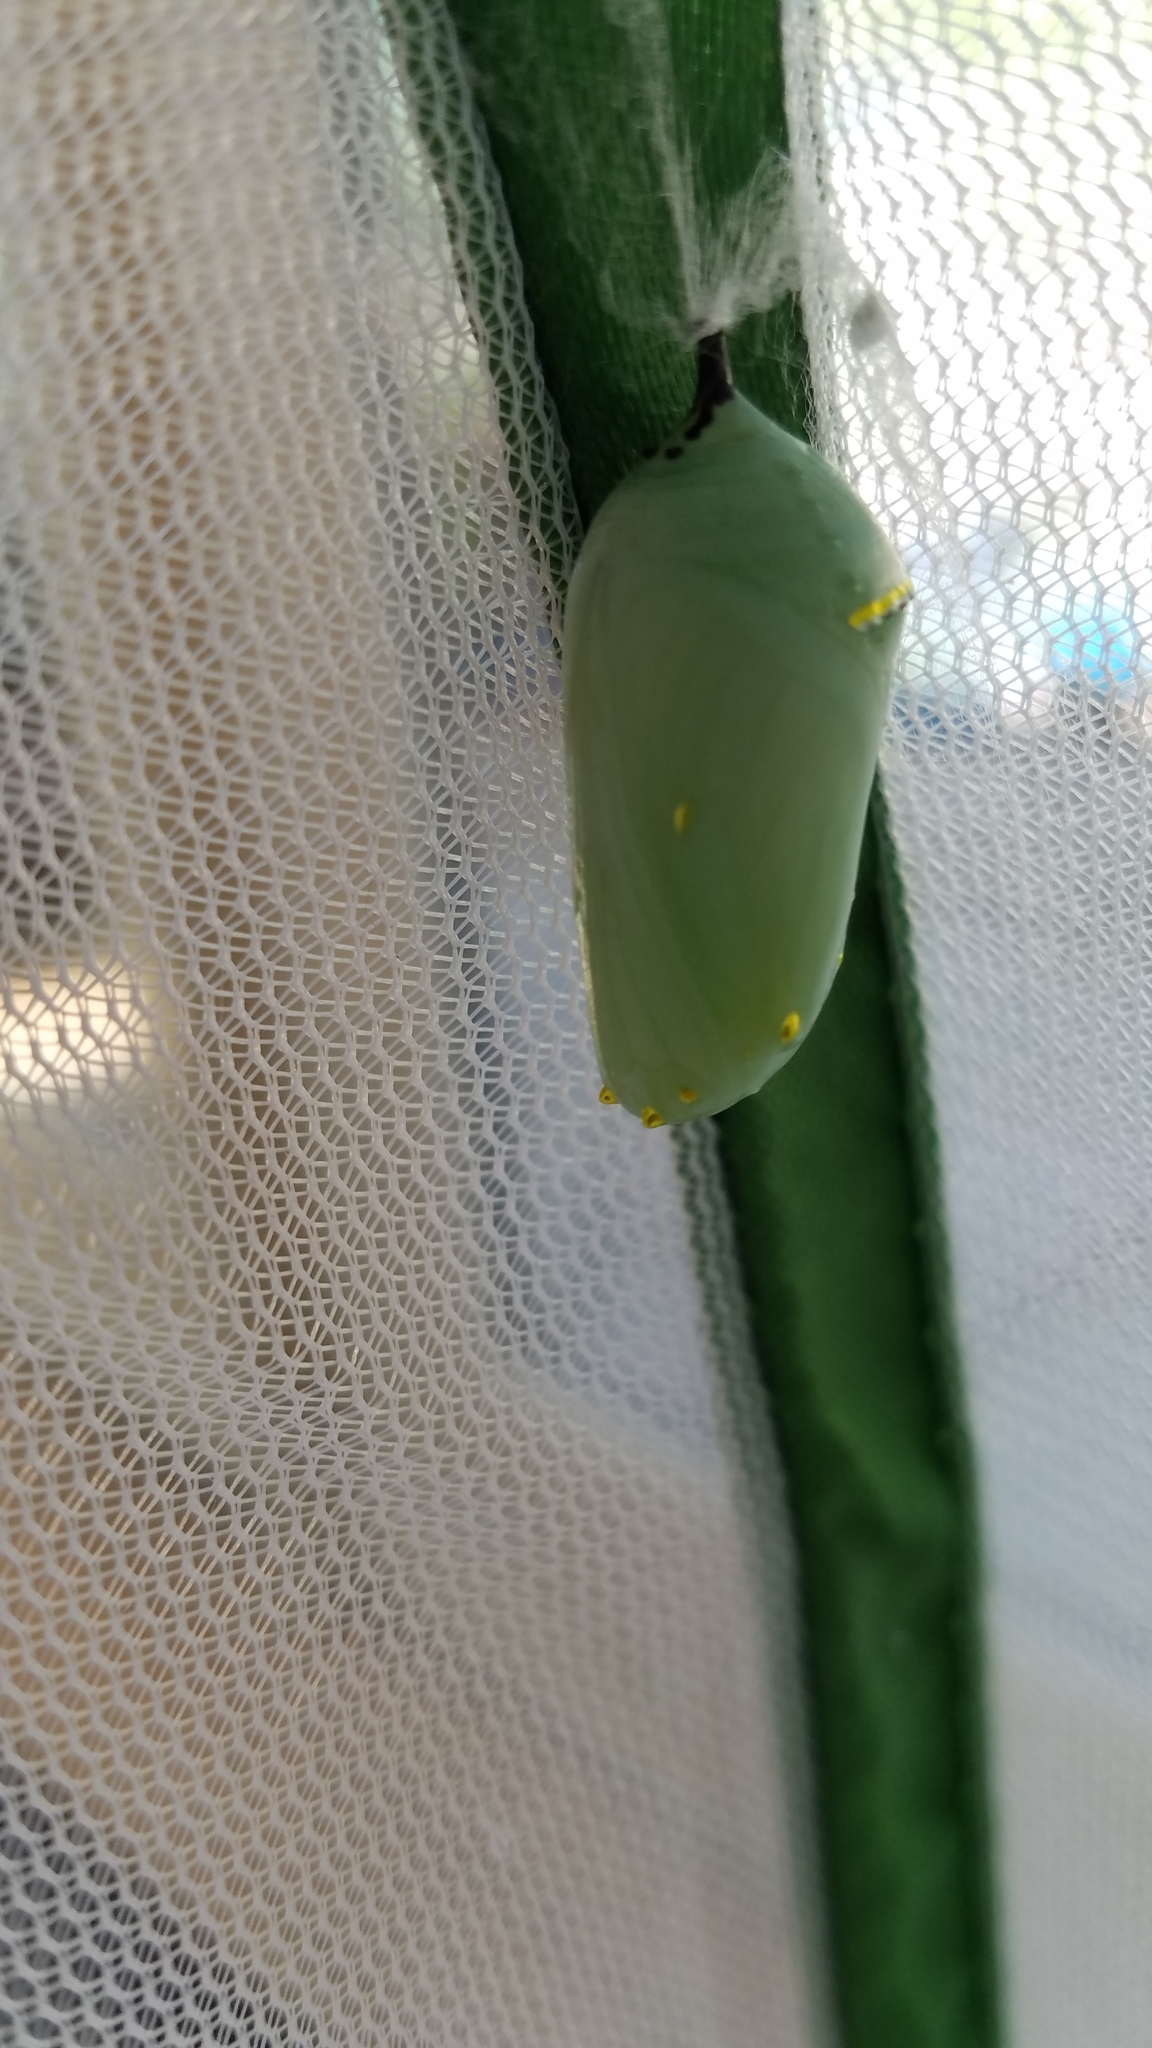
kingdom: Animalia
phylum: Arthropoda
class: Insecta
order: Lepidoptera
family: Nymphalidae
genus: Danaus
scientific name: Danaus plexippus
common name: Monarch
